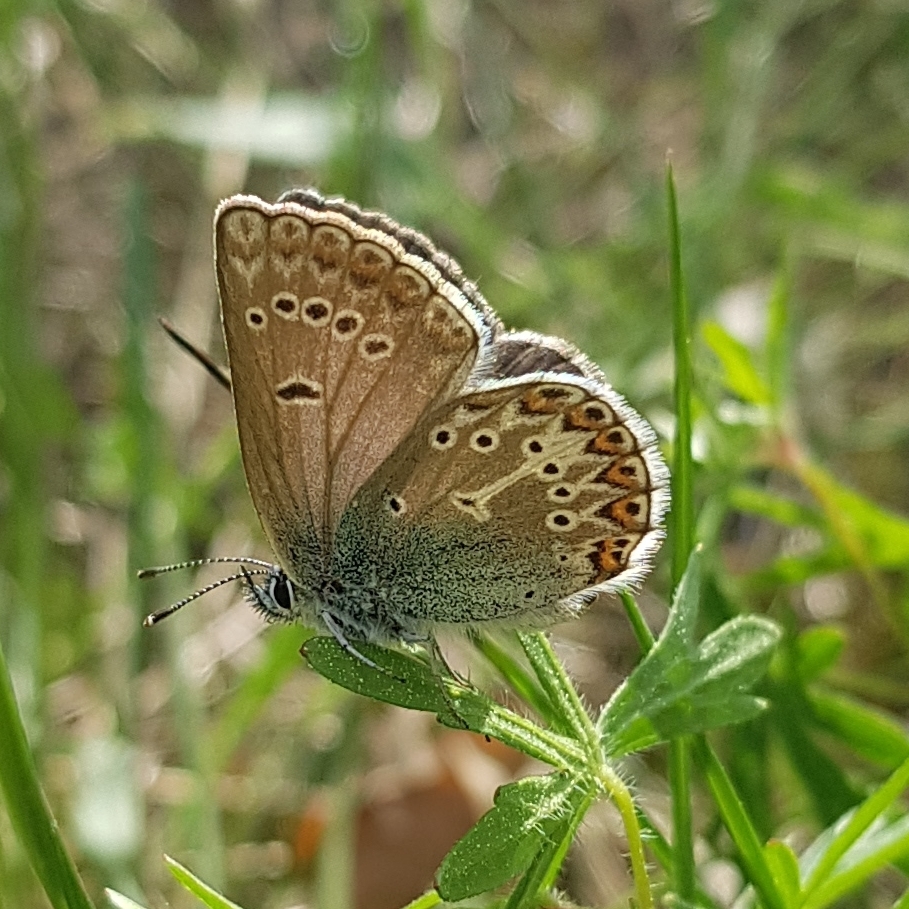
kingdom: Animalia
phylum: Arthropoda
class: Insecta
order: Lepidoptera
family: Lycaenidae
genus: Eumedonia
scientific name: Eumedonia eumedon
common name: Geranium argus
